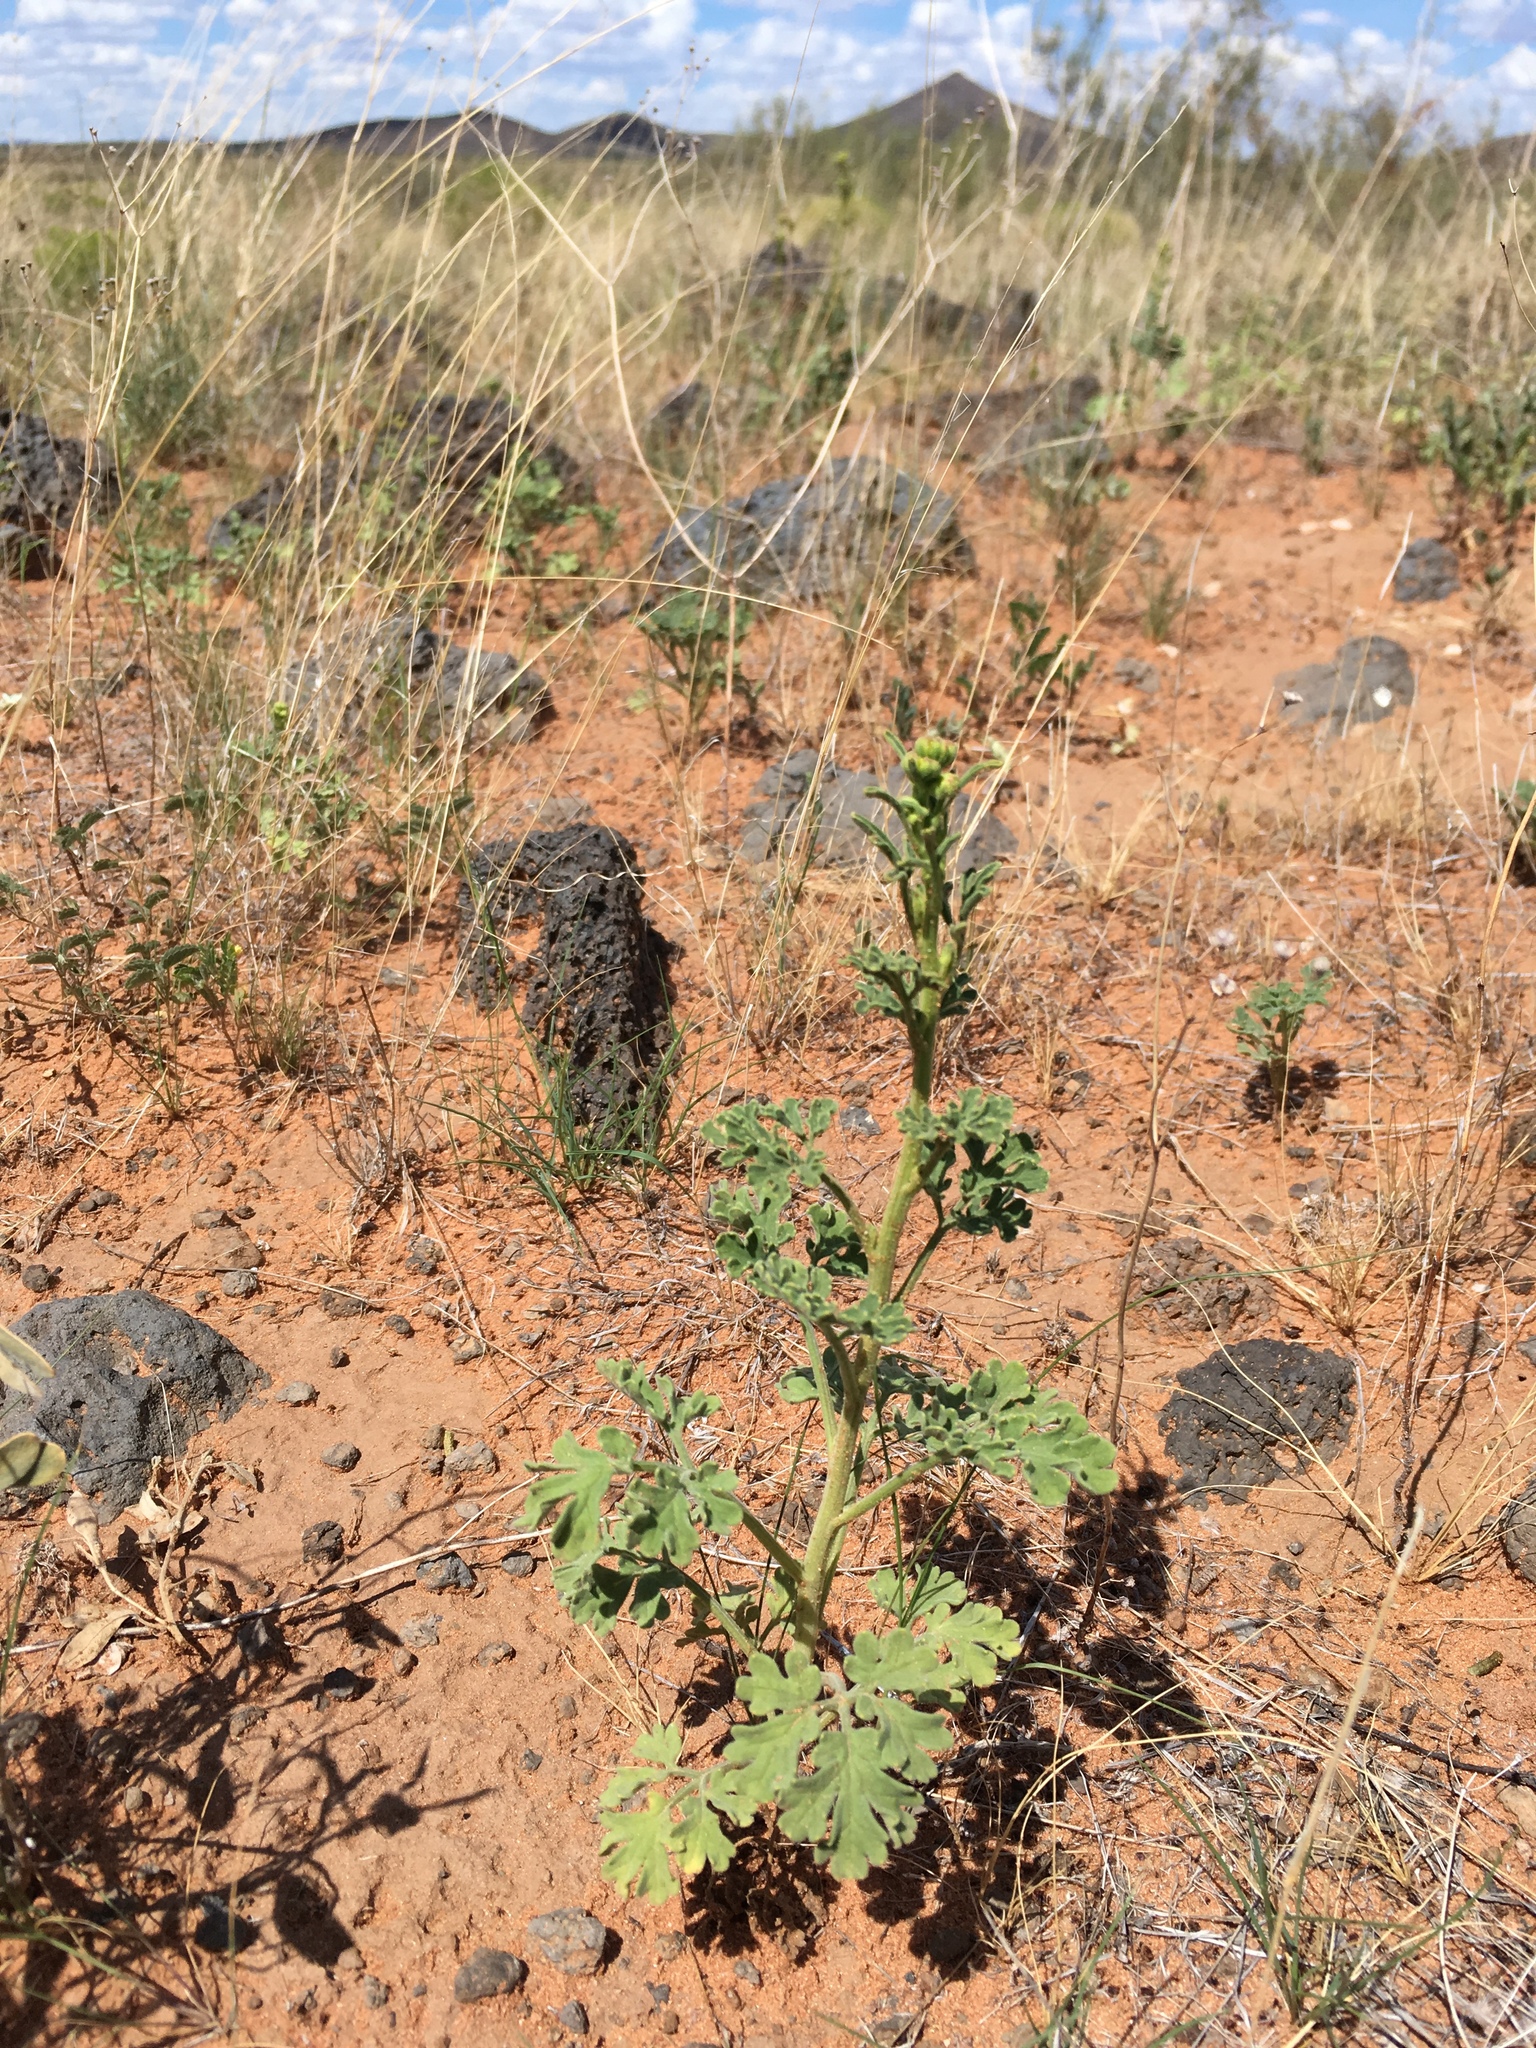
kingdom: Plantae
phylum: Tracheophyta
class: Magnoliopsida
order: Asterales
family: Asteraceae
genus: Hymenothrix
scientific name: Hymenothrix pedata
